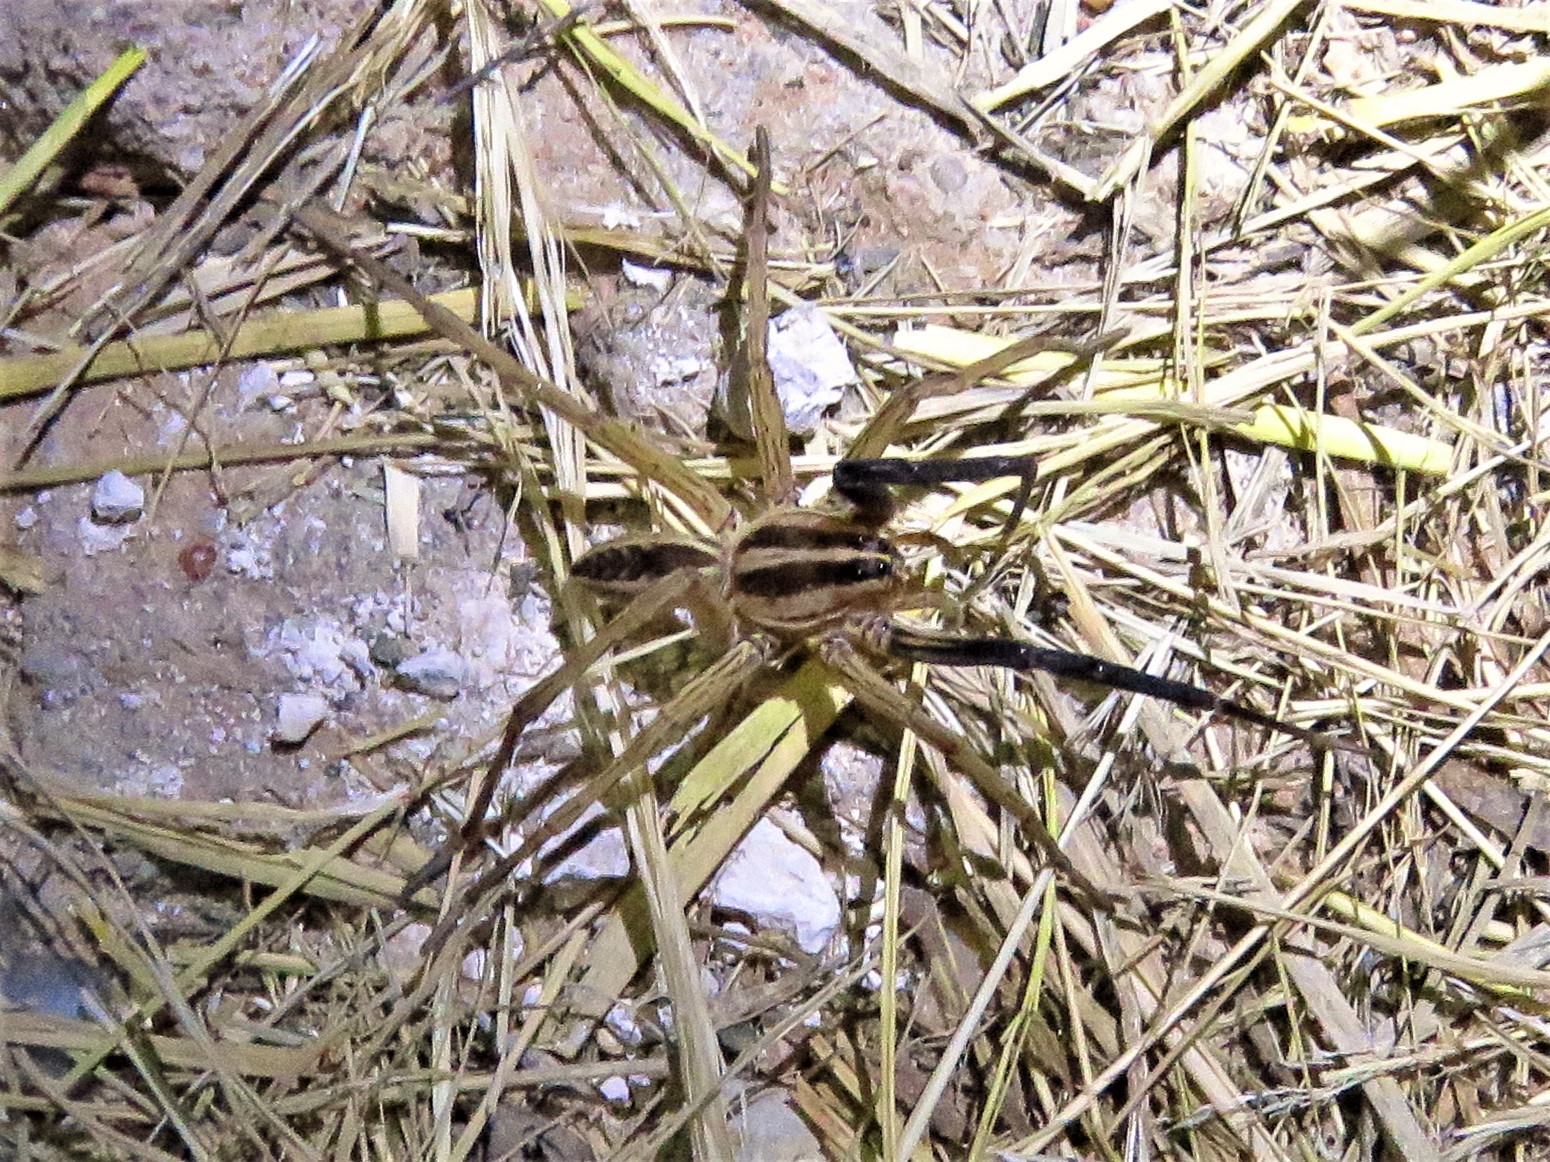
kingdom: Animalia
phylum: Arthropoda
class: Arachnida
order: Araneae
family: Lycosidae
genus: Rabidosa
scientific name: Rabidosa rabida
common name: Rabid wolf spider
